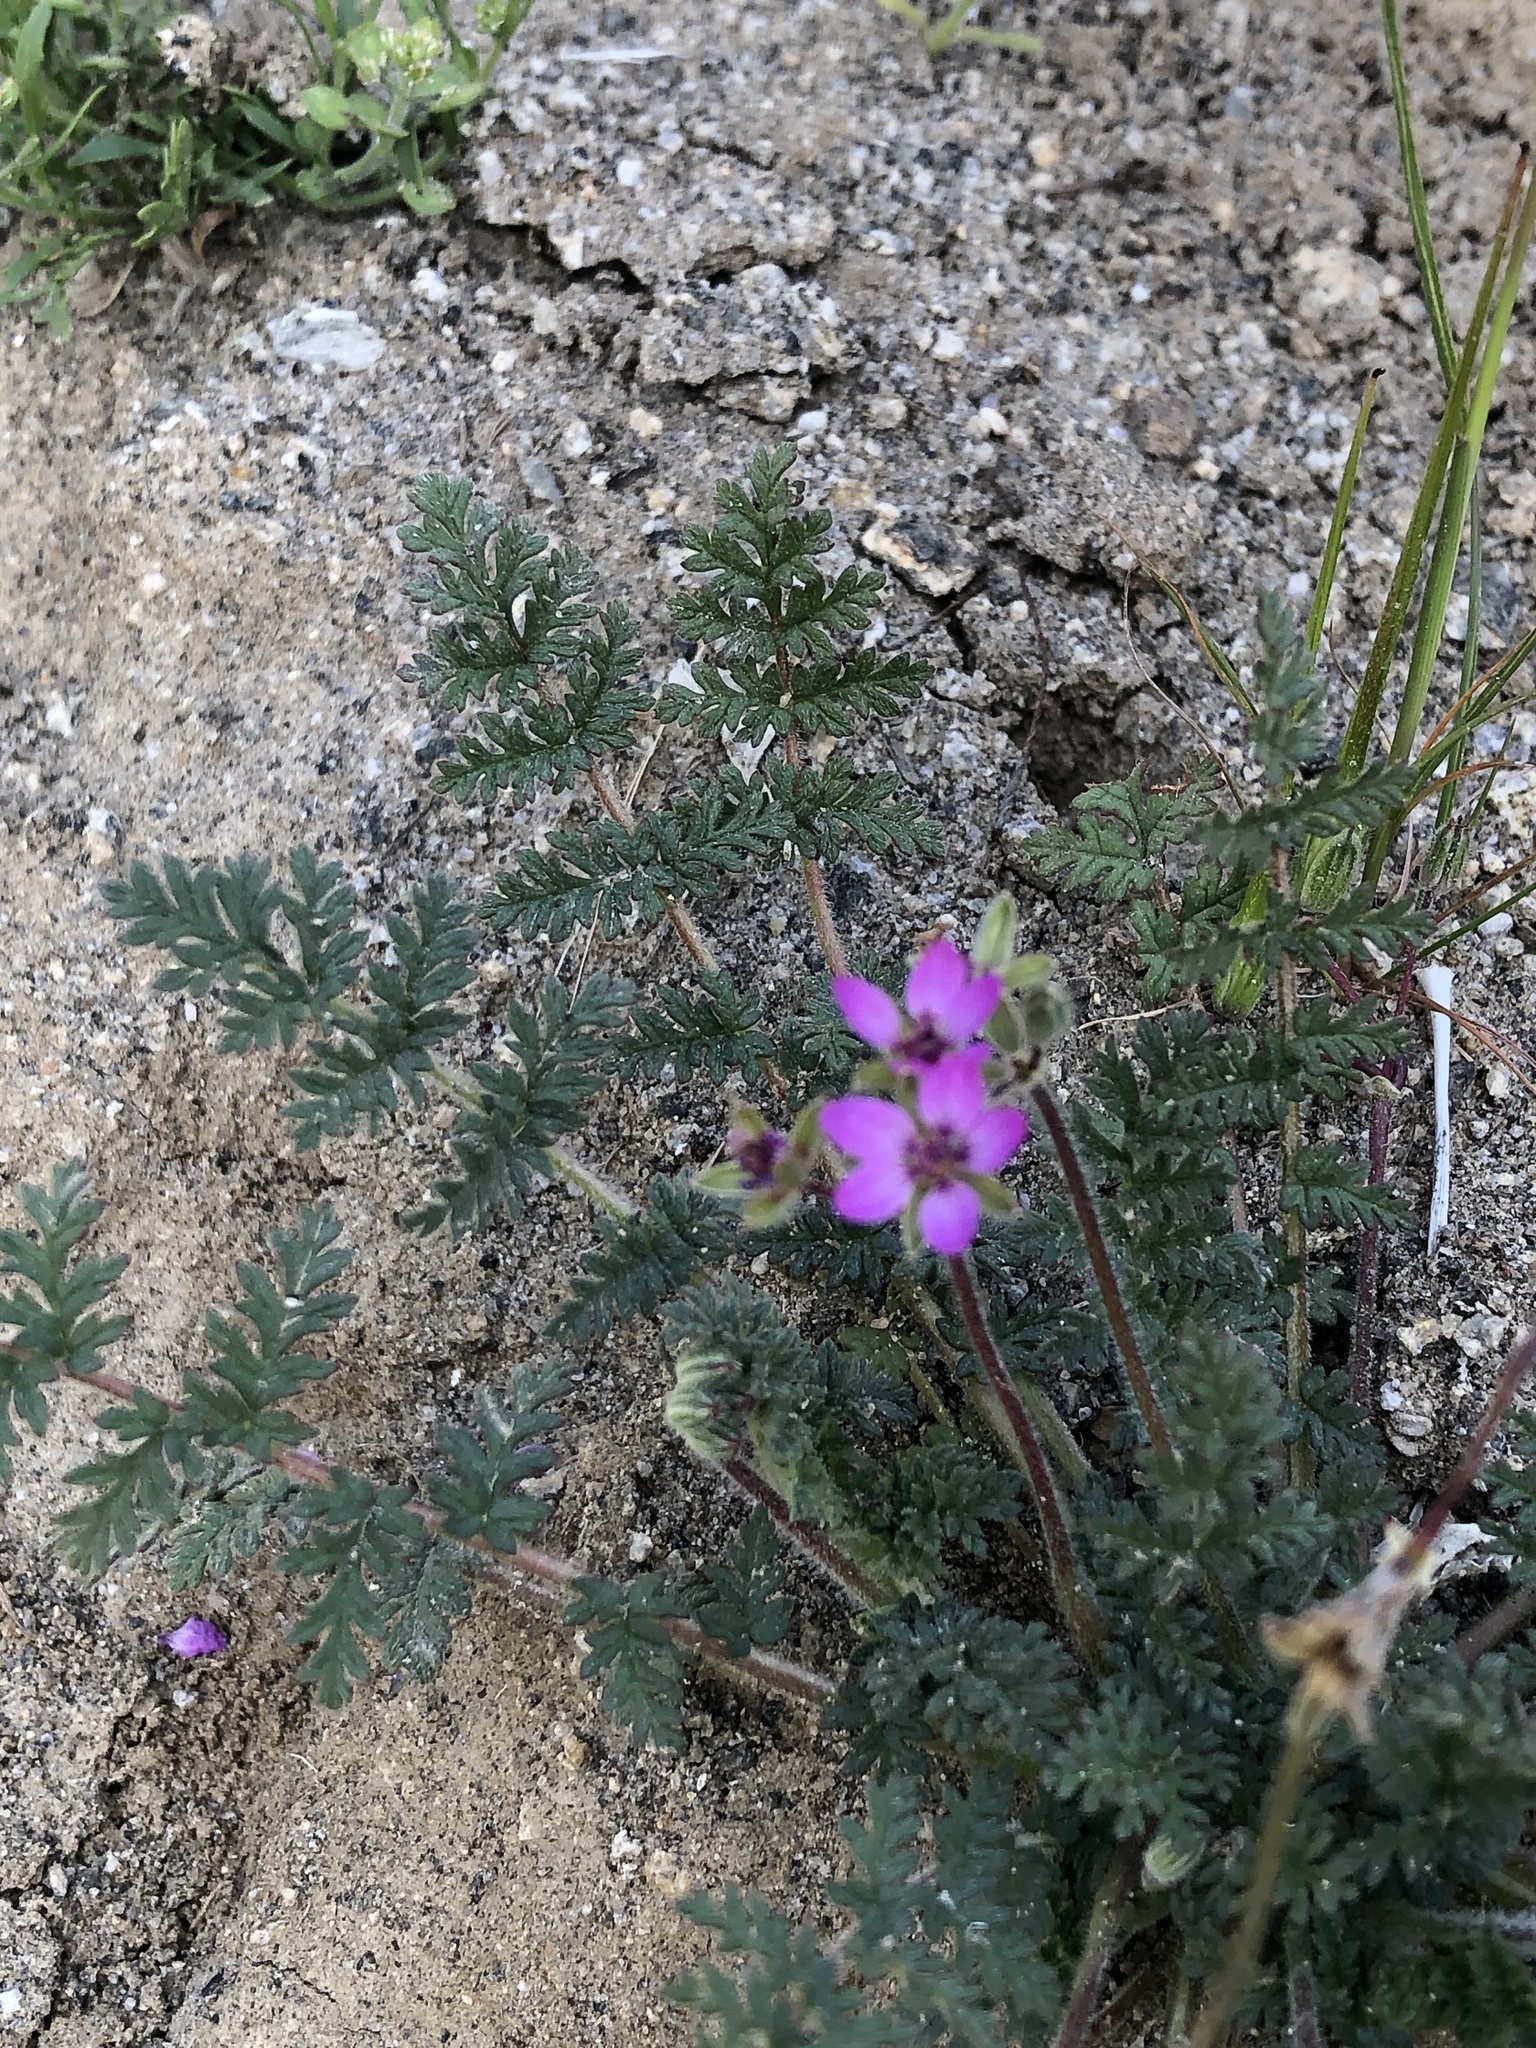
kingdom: Plantae
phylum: Tracheophyta
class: Magnoliopsida
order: Geraniales
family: Geraniaceae
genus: Erodium
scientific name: Erodium cicutarium
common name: Common stork's-bill
